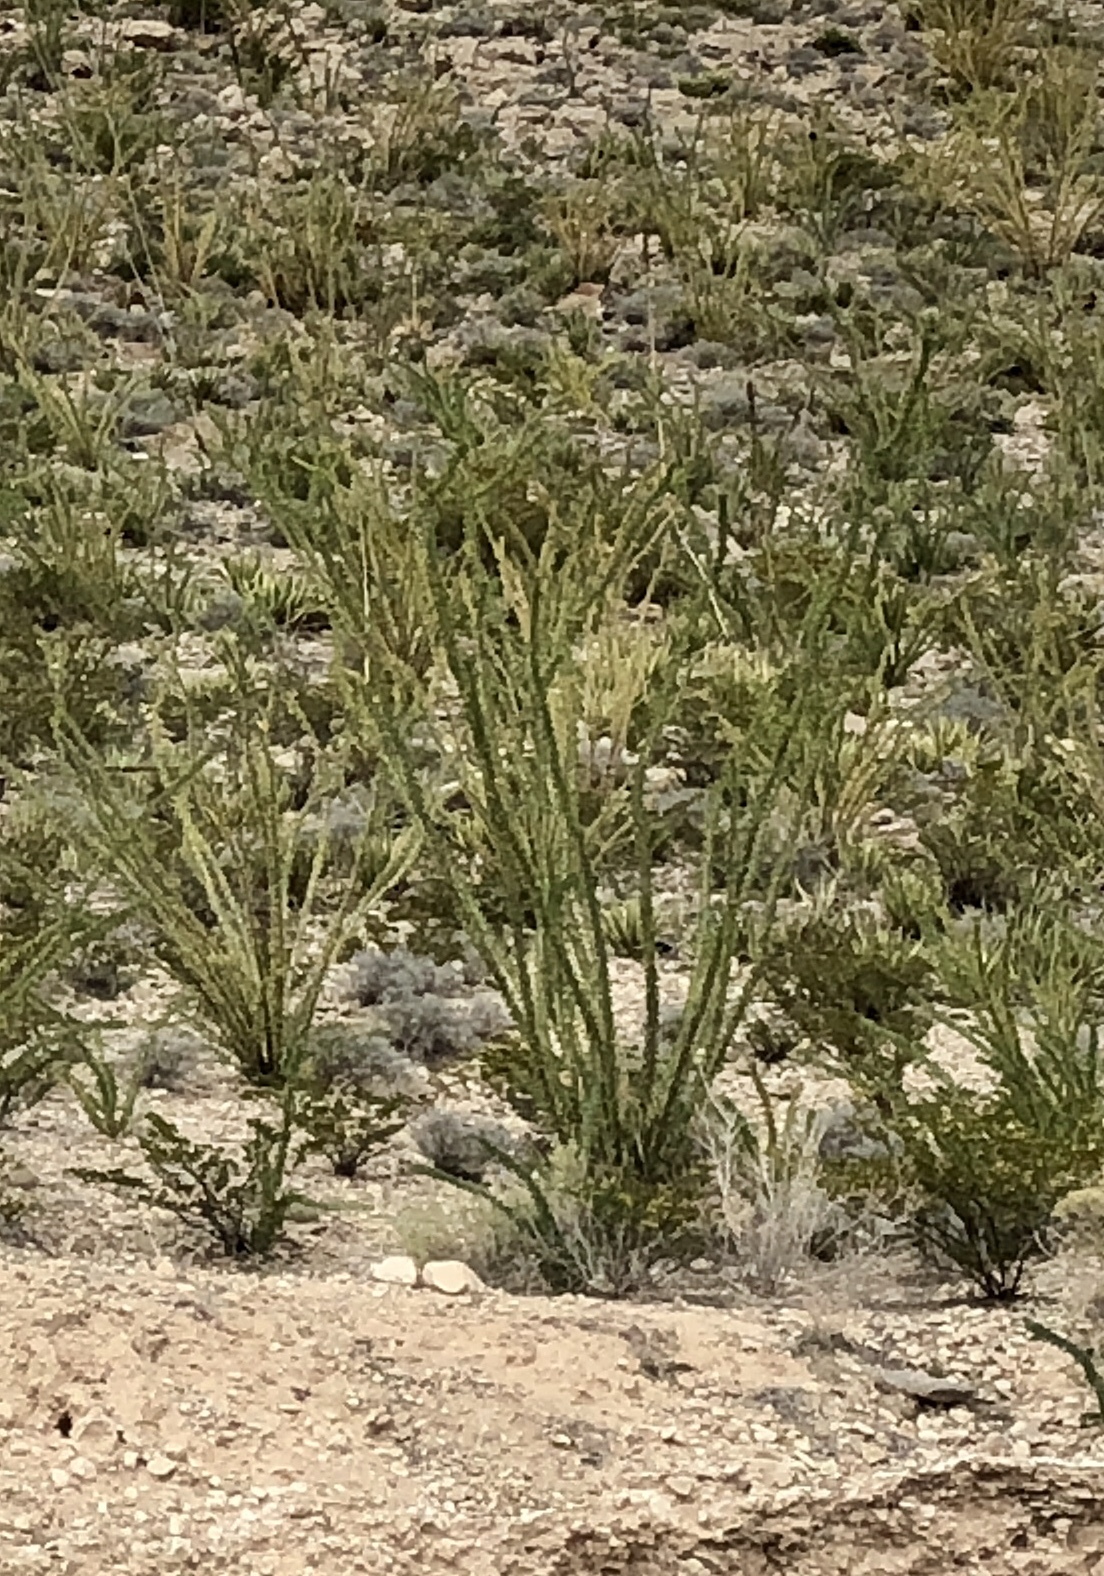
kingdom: Plantae
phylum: Tracheophyta
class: Magnoliopsida
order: Ericales
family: Fouquieriaceae
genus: Fouquieria
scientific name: Fouquieria splendens
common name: Vine-cactus
